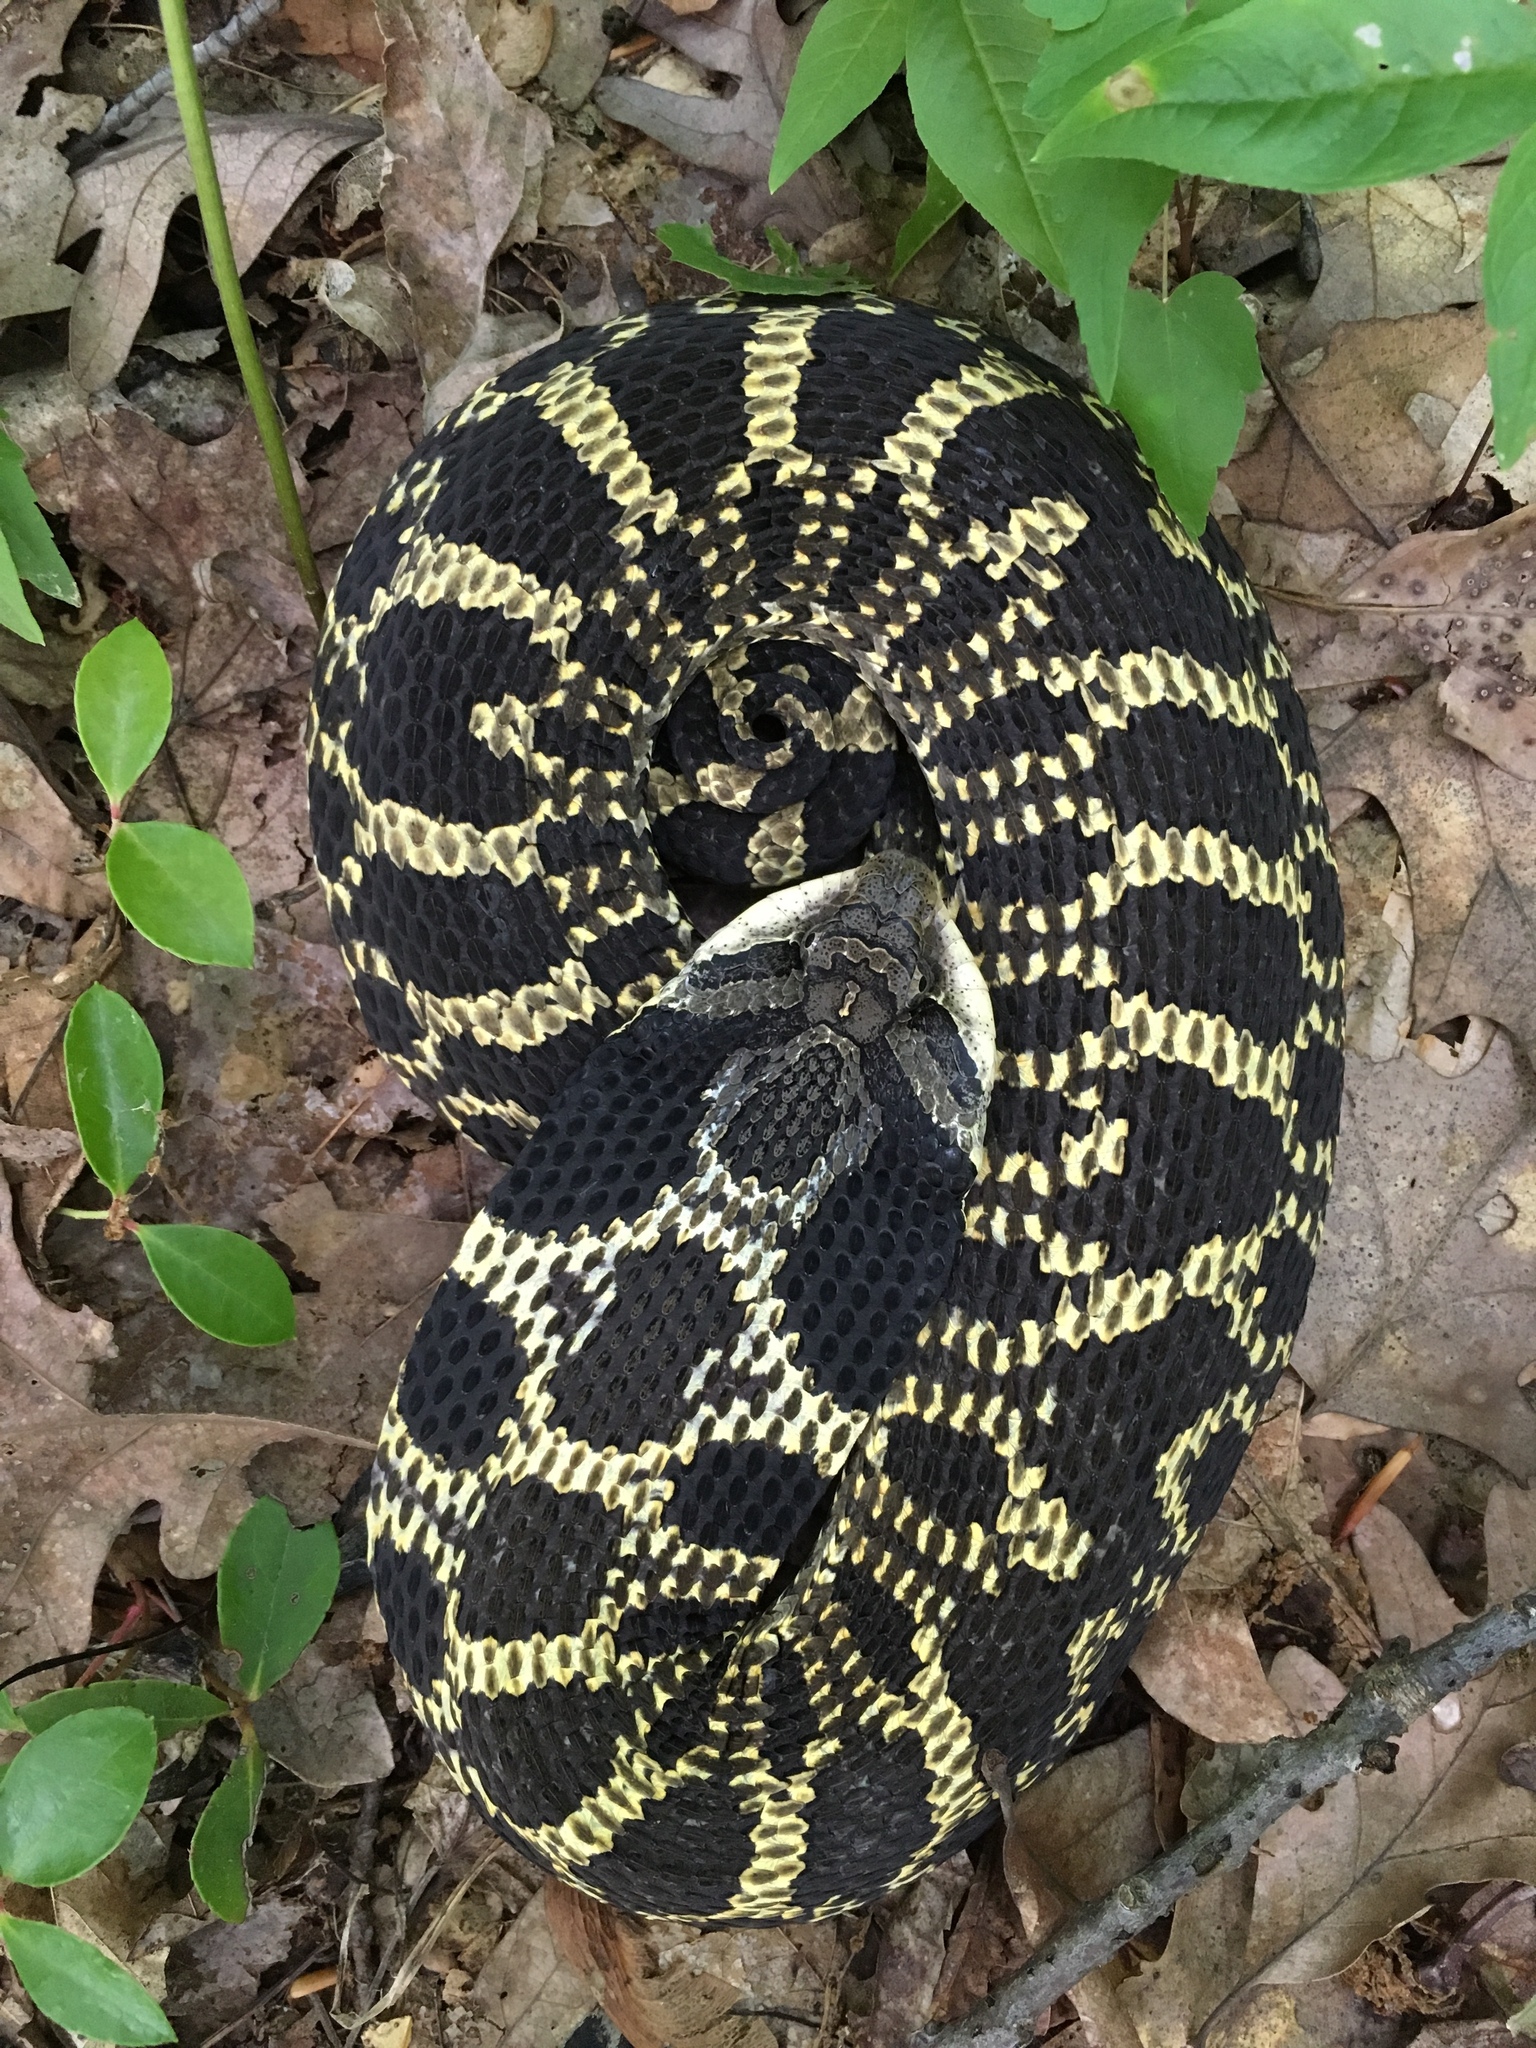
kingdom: Animalia
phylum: Chordata
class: Squamata
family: Colubridae
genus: Heterodon
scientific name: Heterodon platirhinos
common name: Eastern hognose snake
